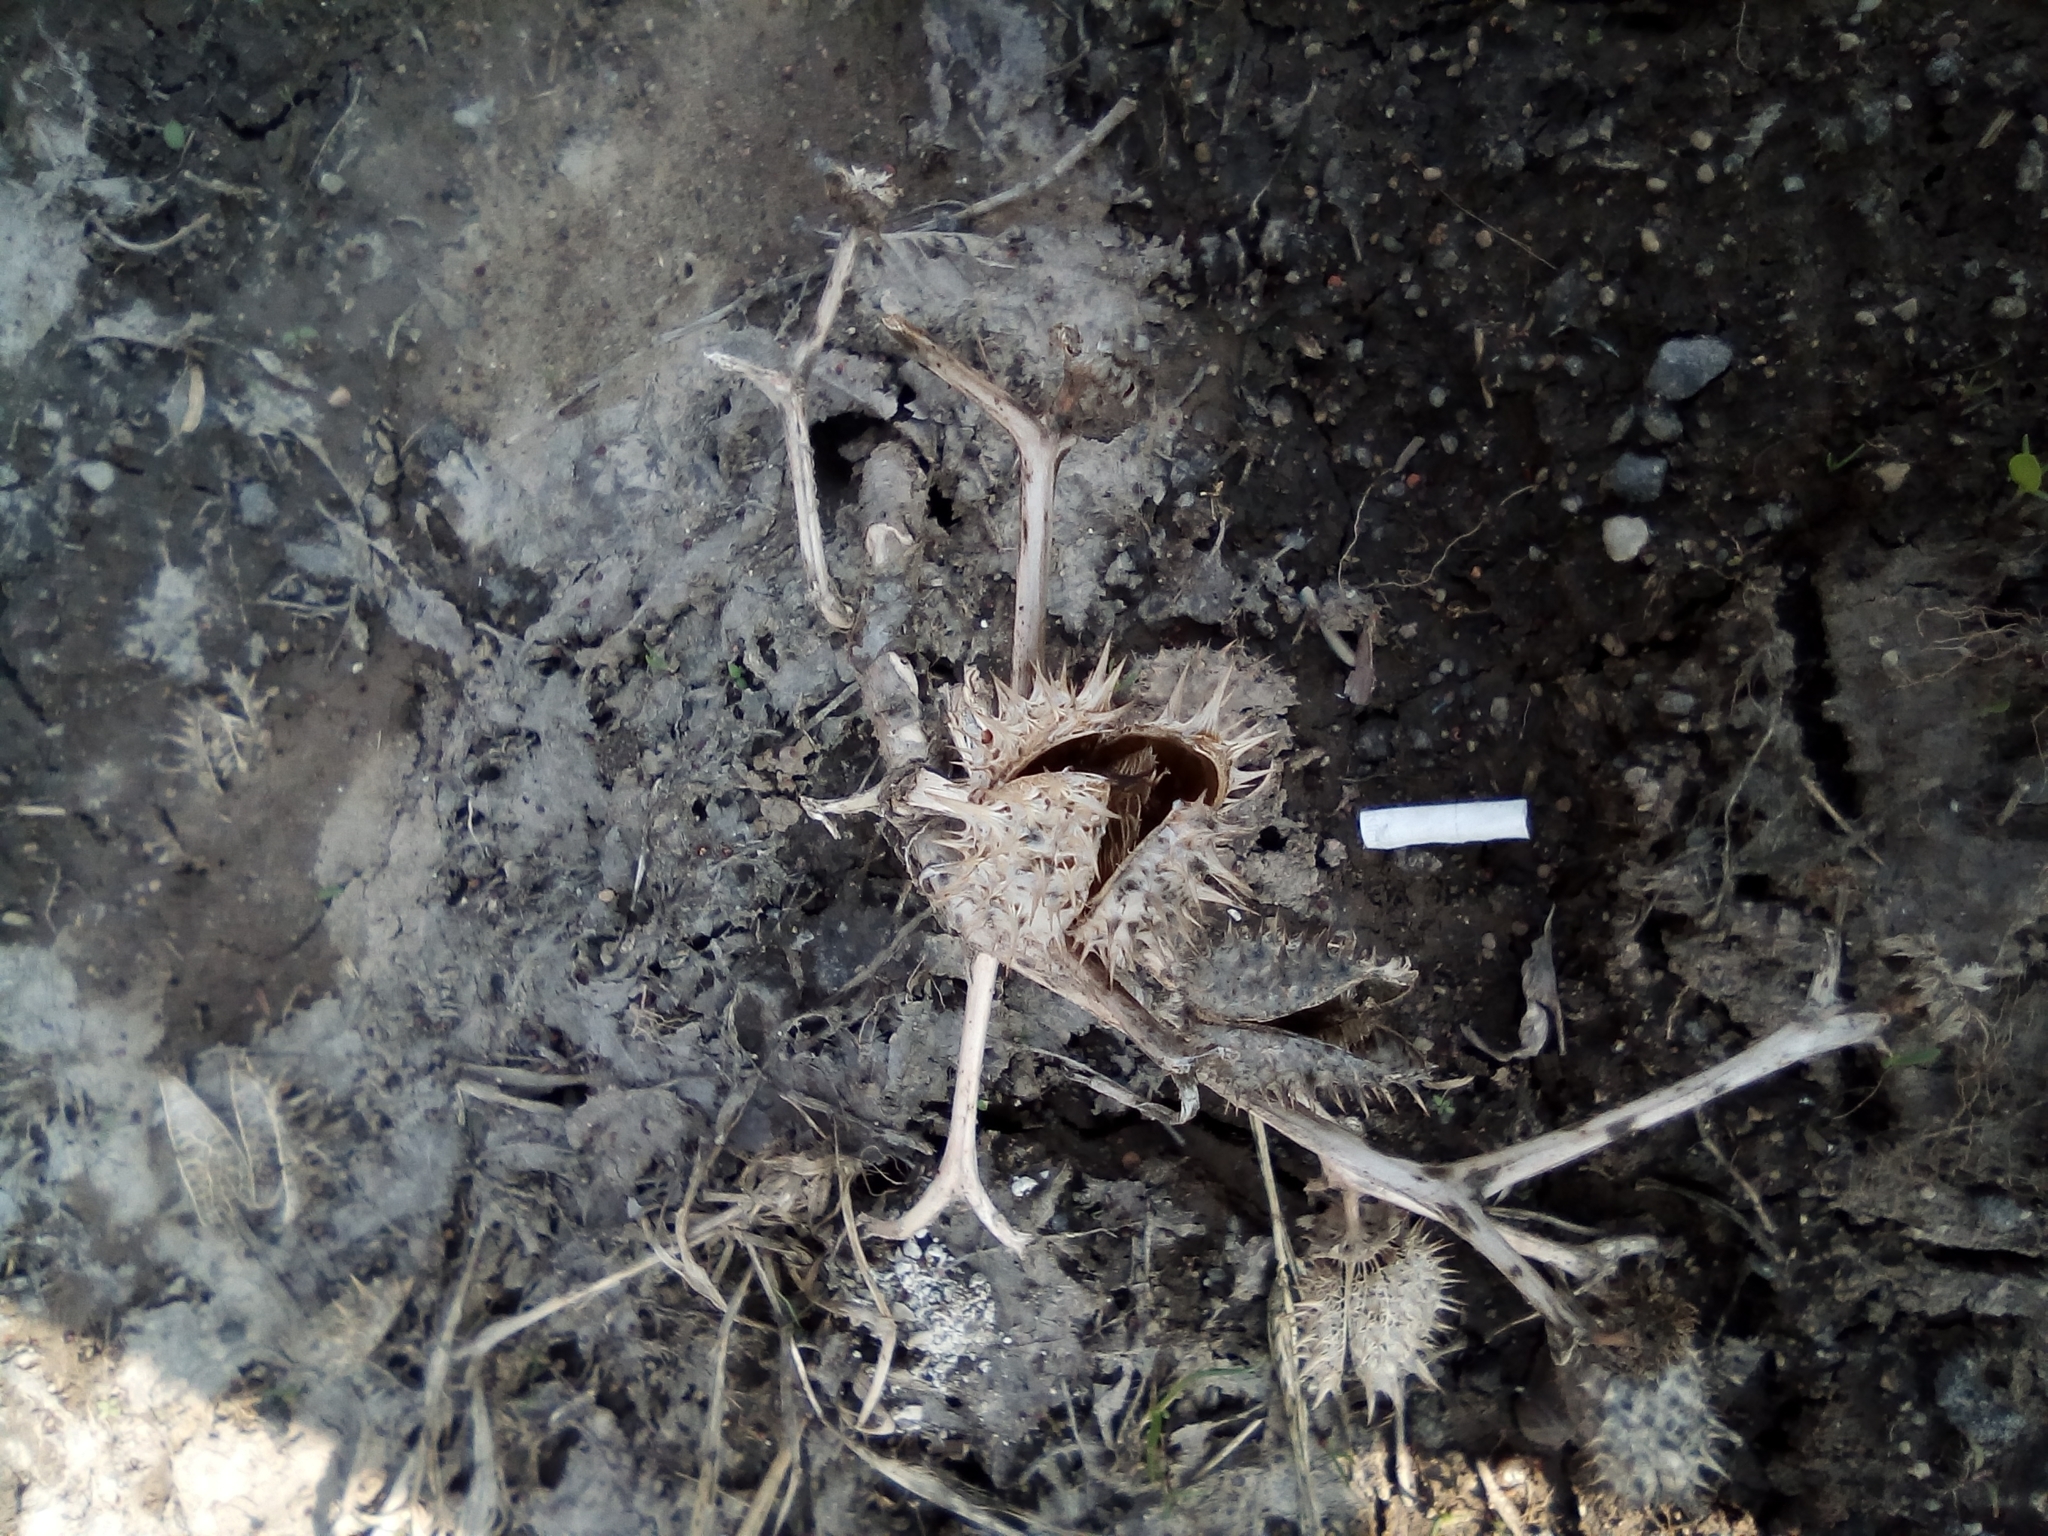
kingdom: Plantae
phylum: Tracheophyta
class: Magnoliopsida
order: Solanales
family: Solanaceae
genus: Datura
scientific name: Datura stramonium
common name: Thorn-apple
